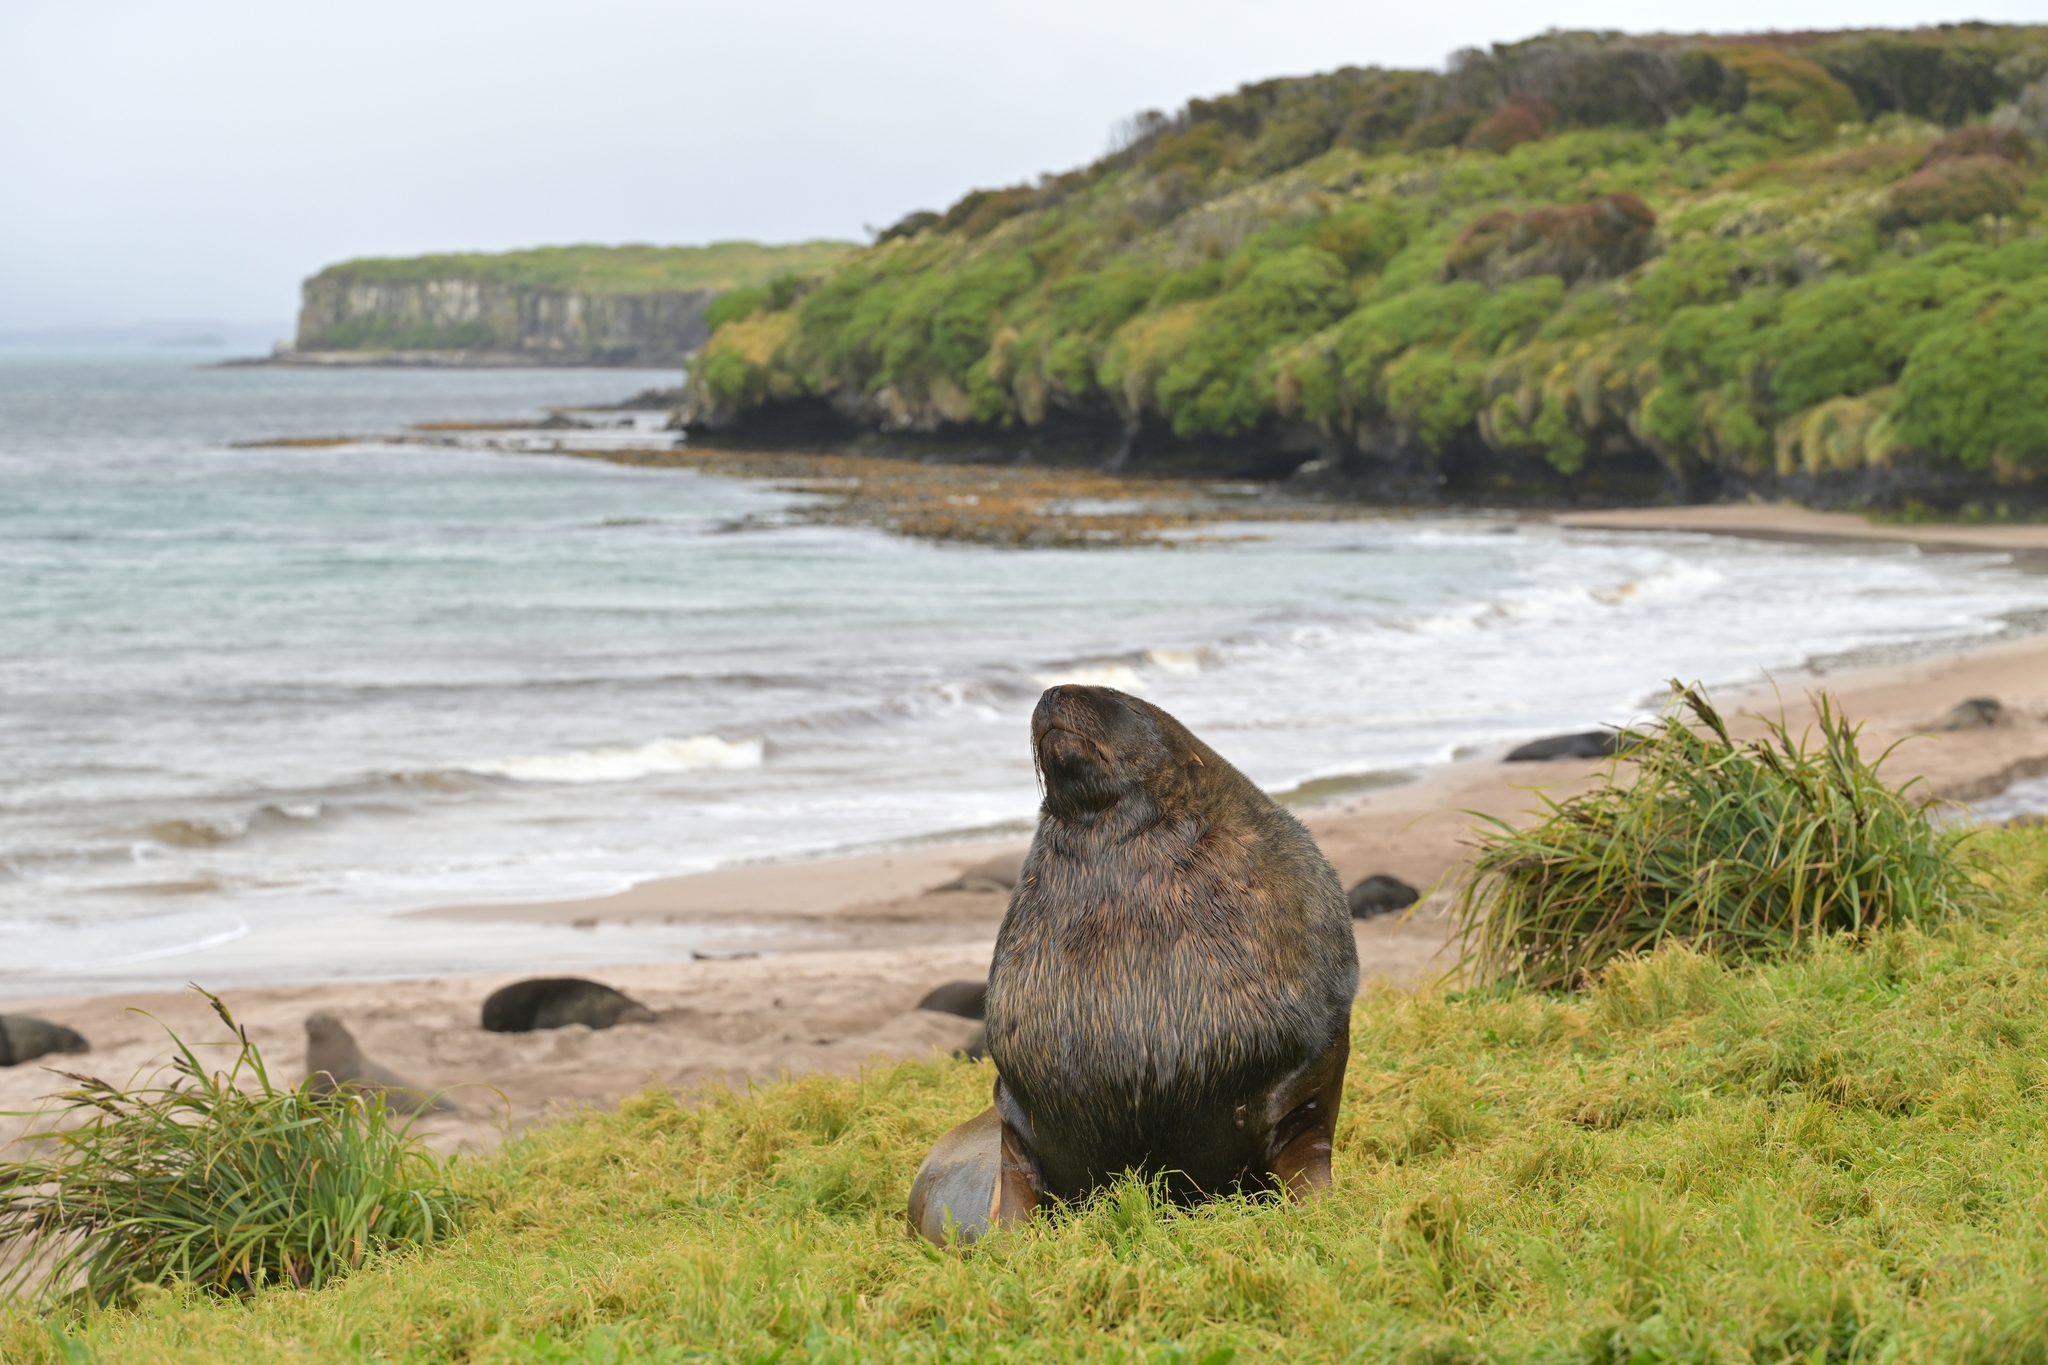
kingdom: Animalia
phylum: Chordata
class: Mammalia
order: Carnivora
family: Otariidae
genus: Phocarctos
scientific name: Phocarctos hookeri
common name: New zealand sea lion
